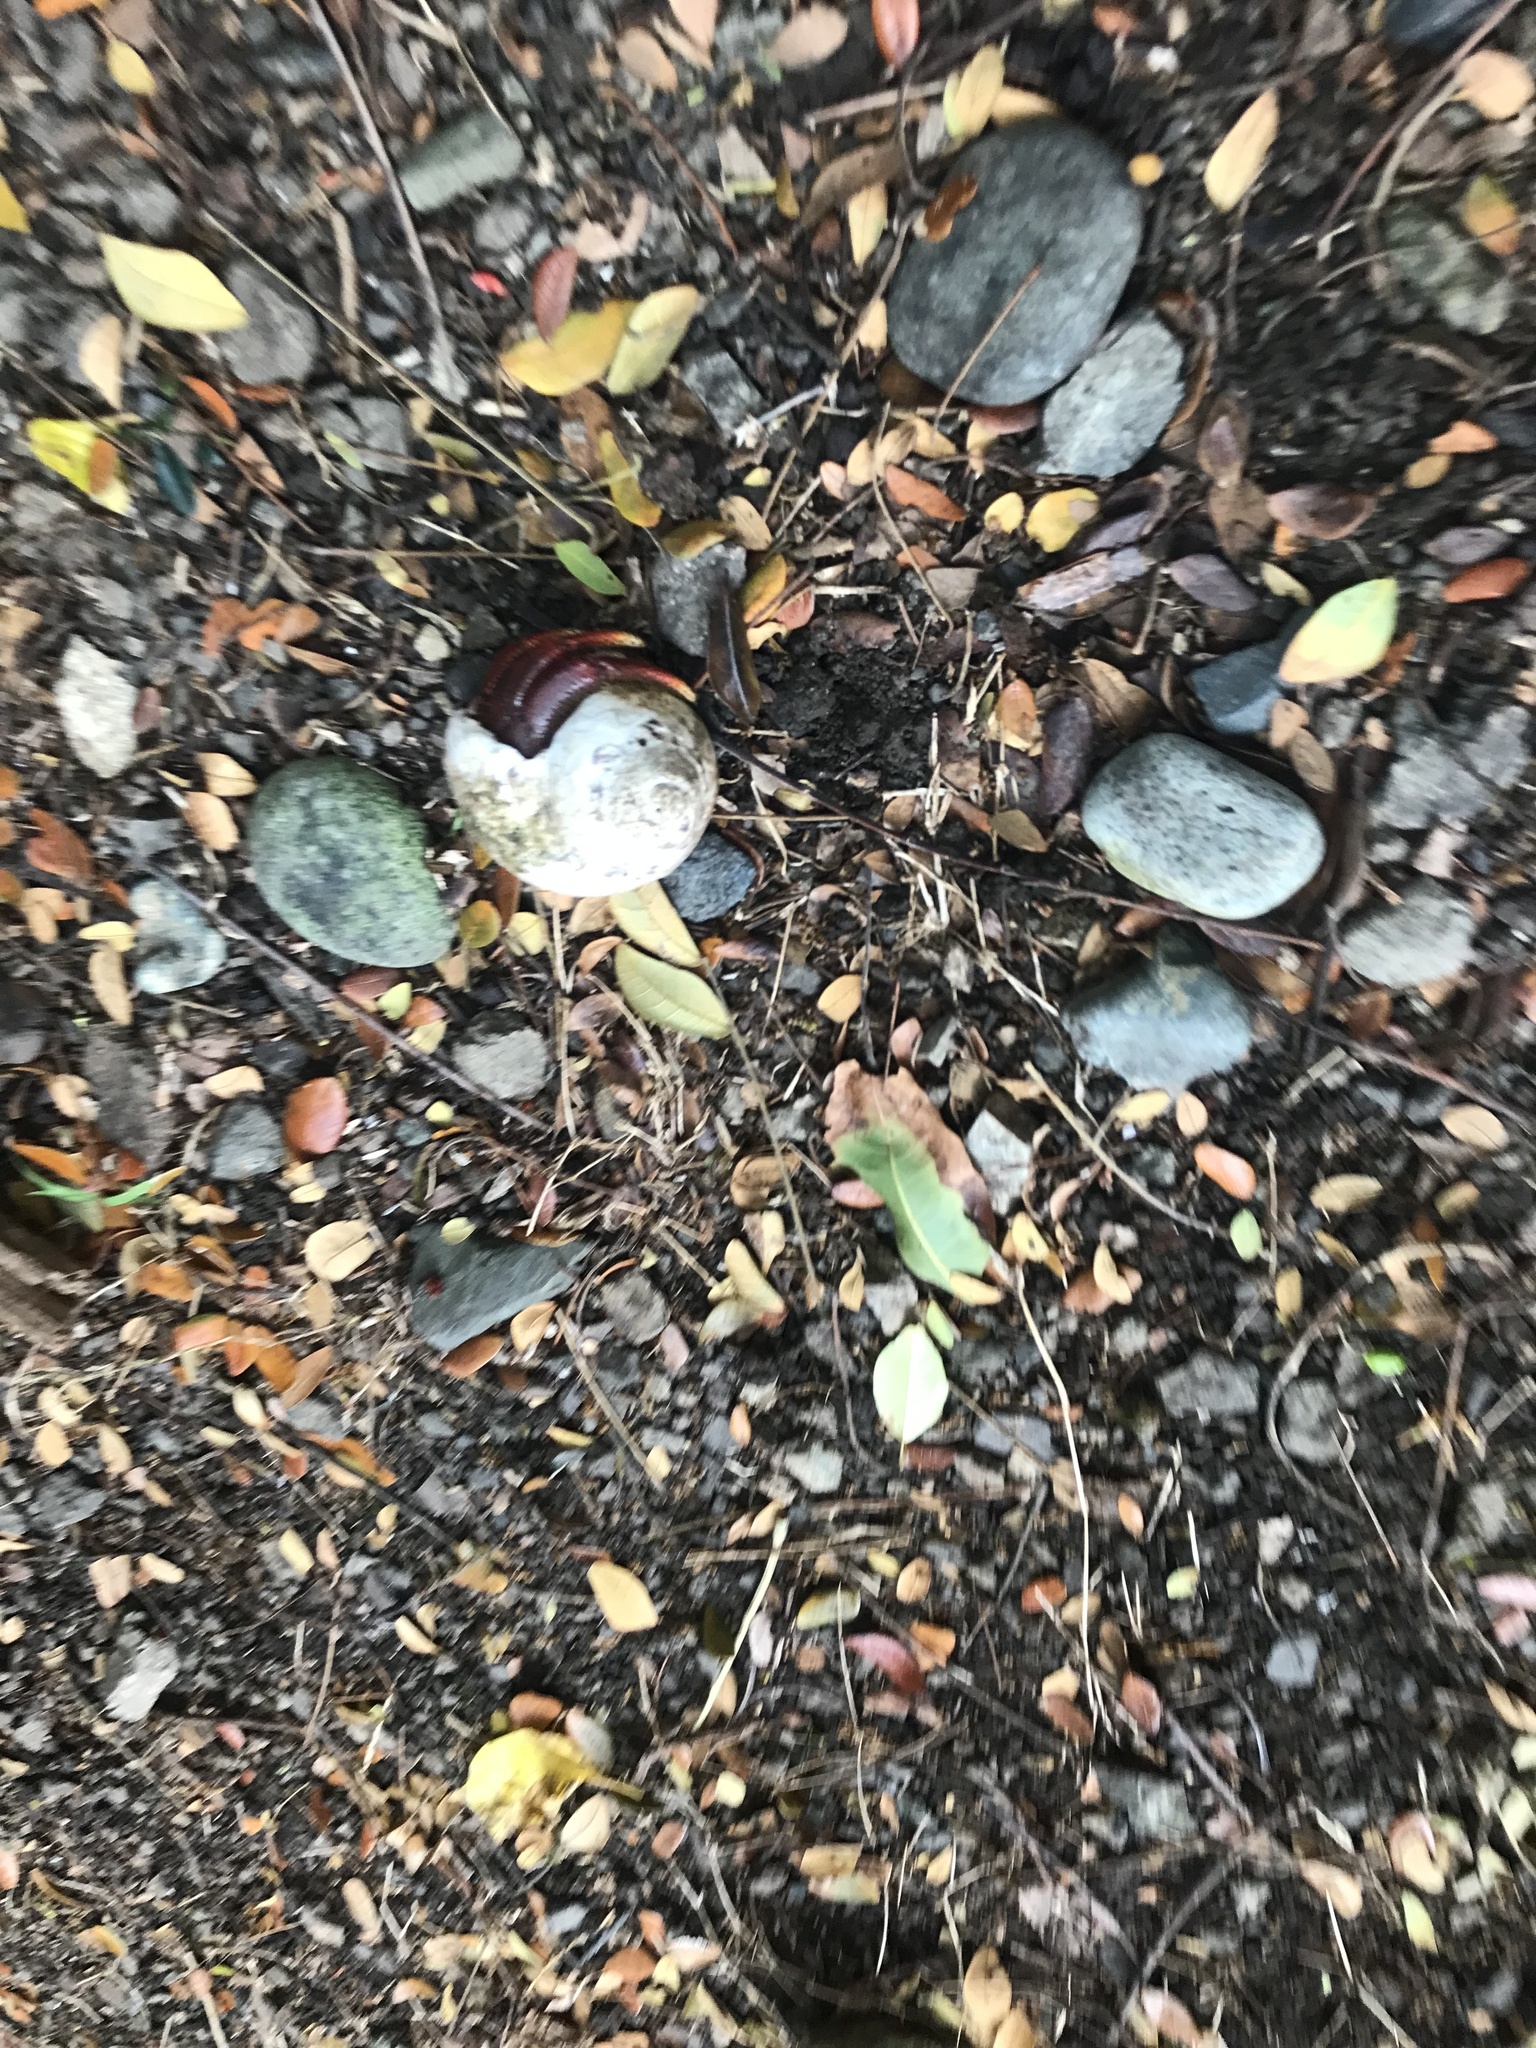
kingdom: Animalia
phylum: Arthropoda
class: Malacostraca
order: Decapoda
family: Coenobitidae
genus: Coenobita
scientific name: Coenobita clypeatus
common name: Caribbean hermit crab
